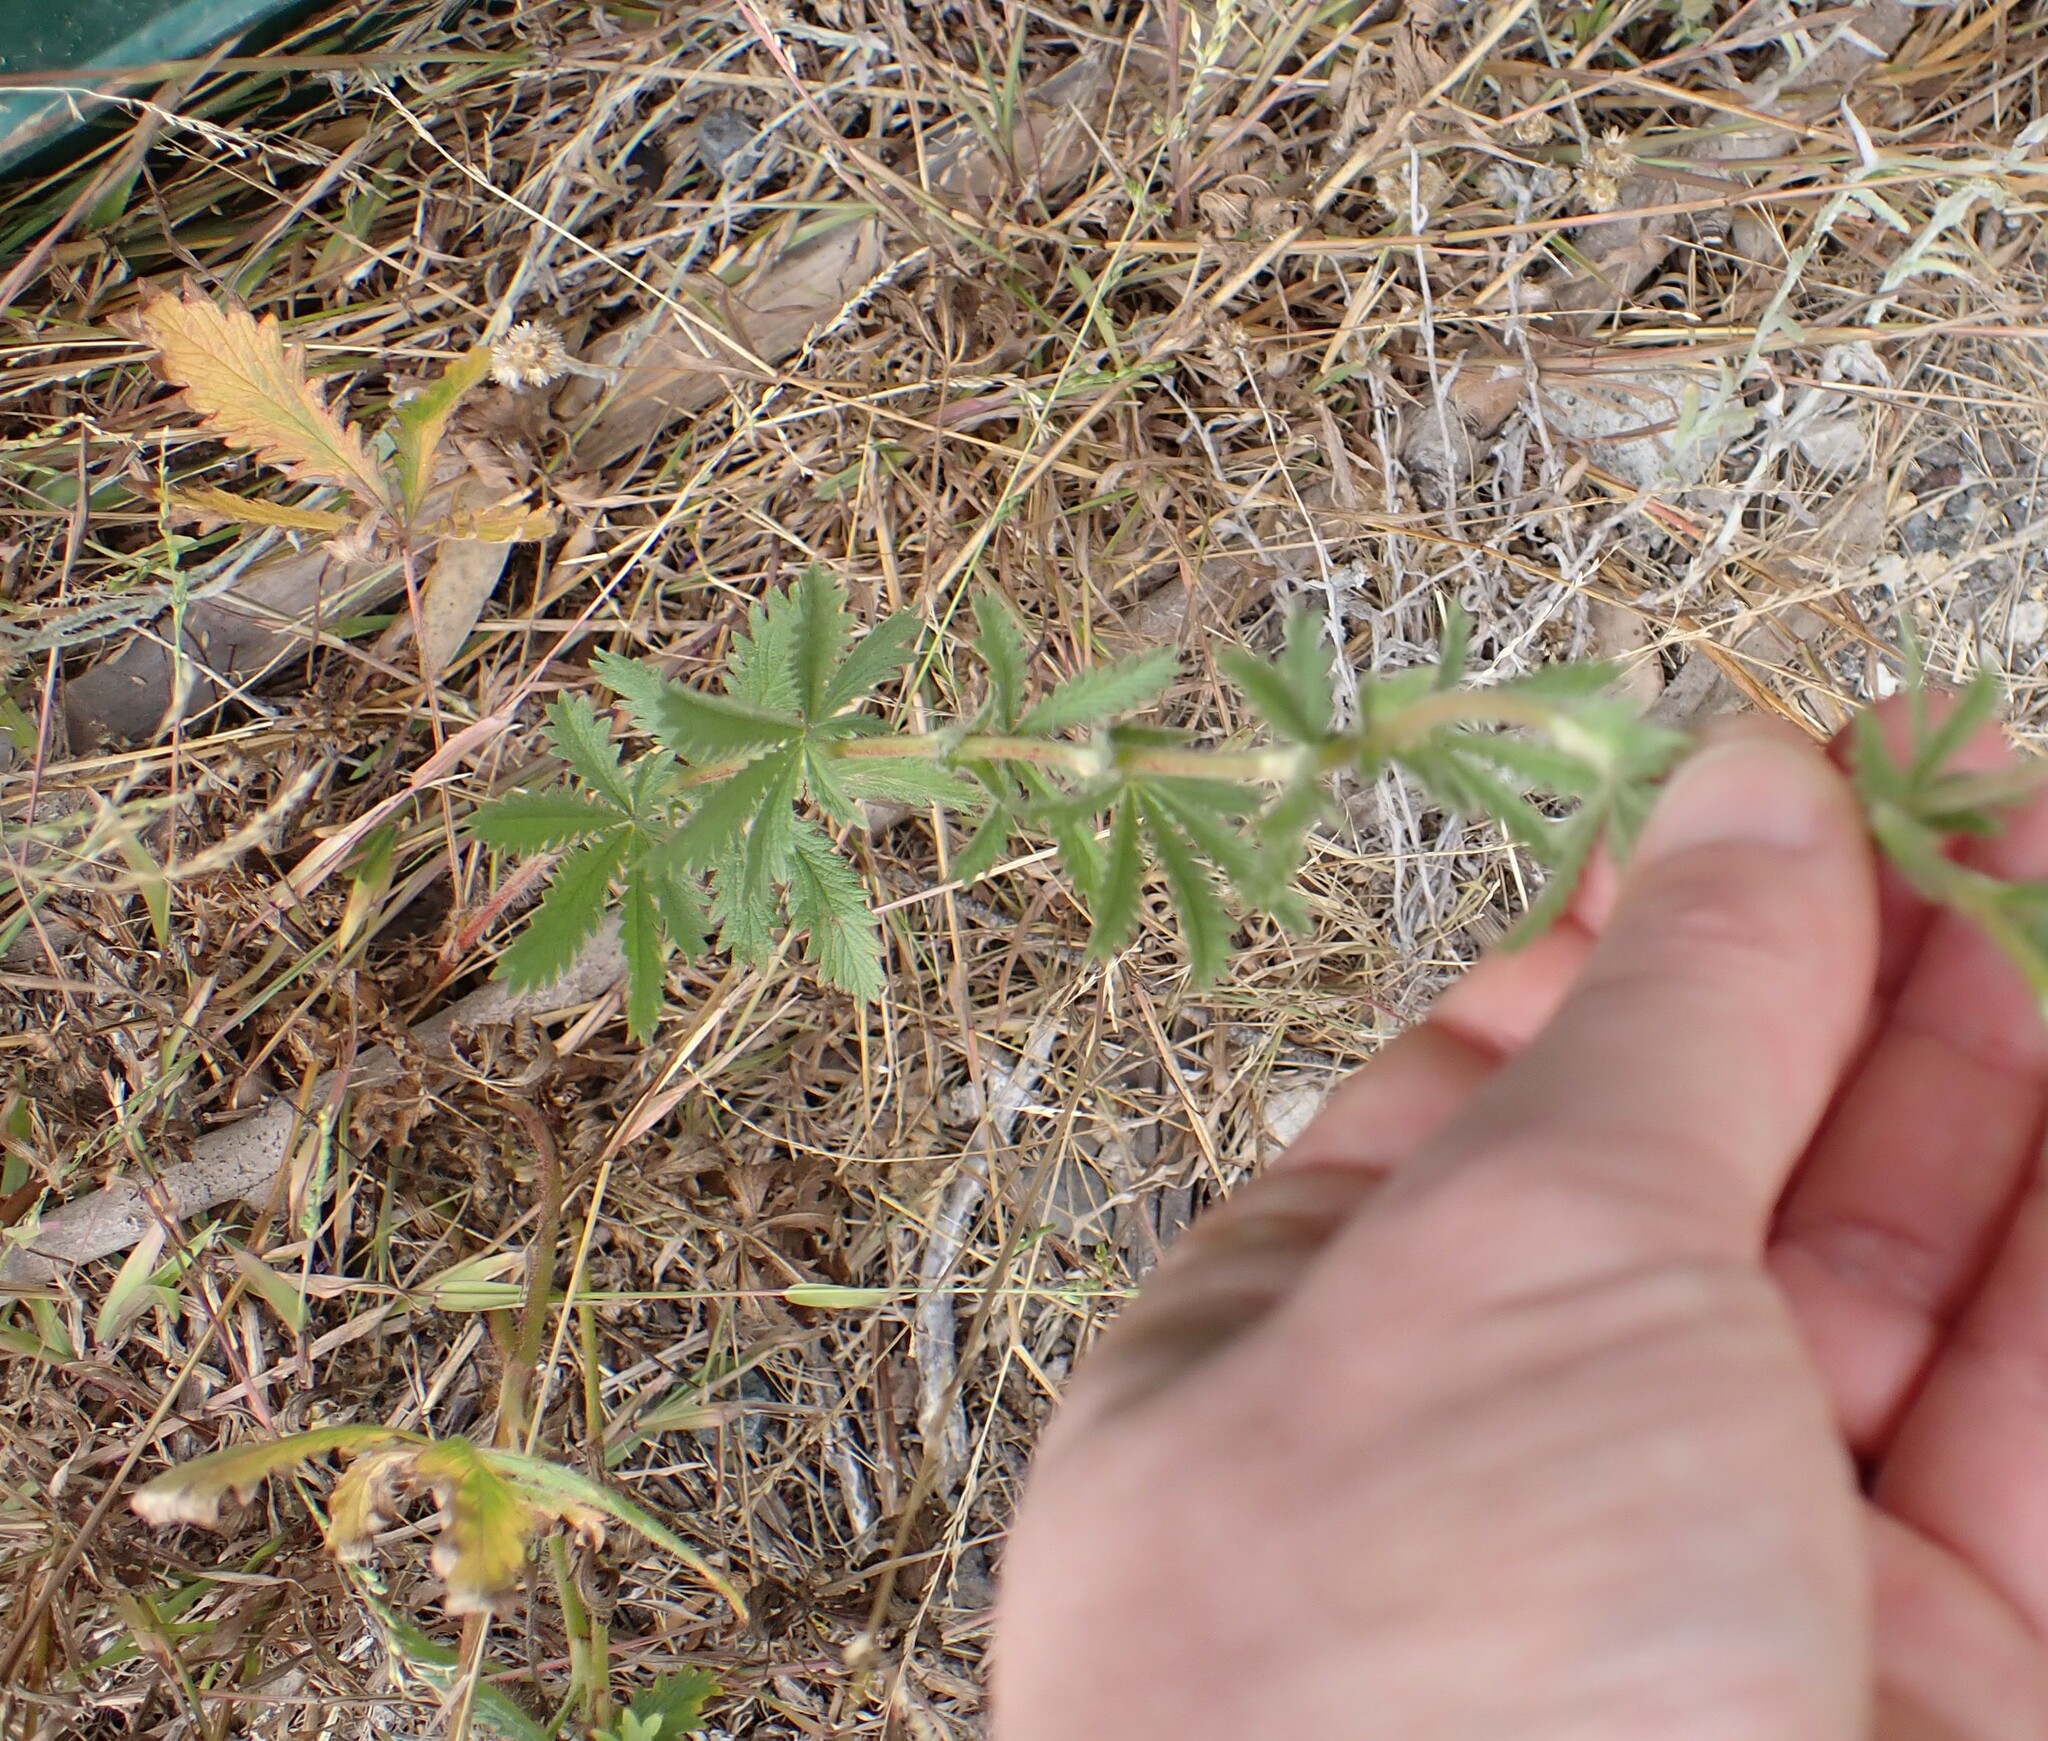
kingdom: Plantae
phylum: Tracheophyta
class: Magnoliopsida
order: Rosales
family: Rosaceae
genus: Potentilla
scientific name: Potentilla recta
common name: Sulphur cinquefoil
